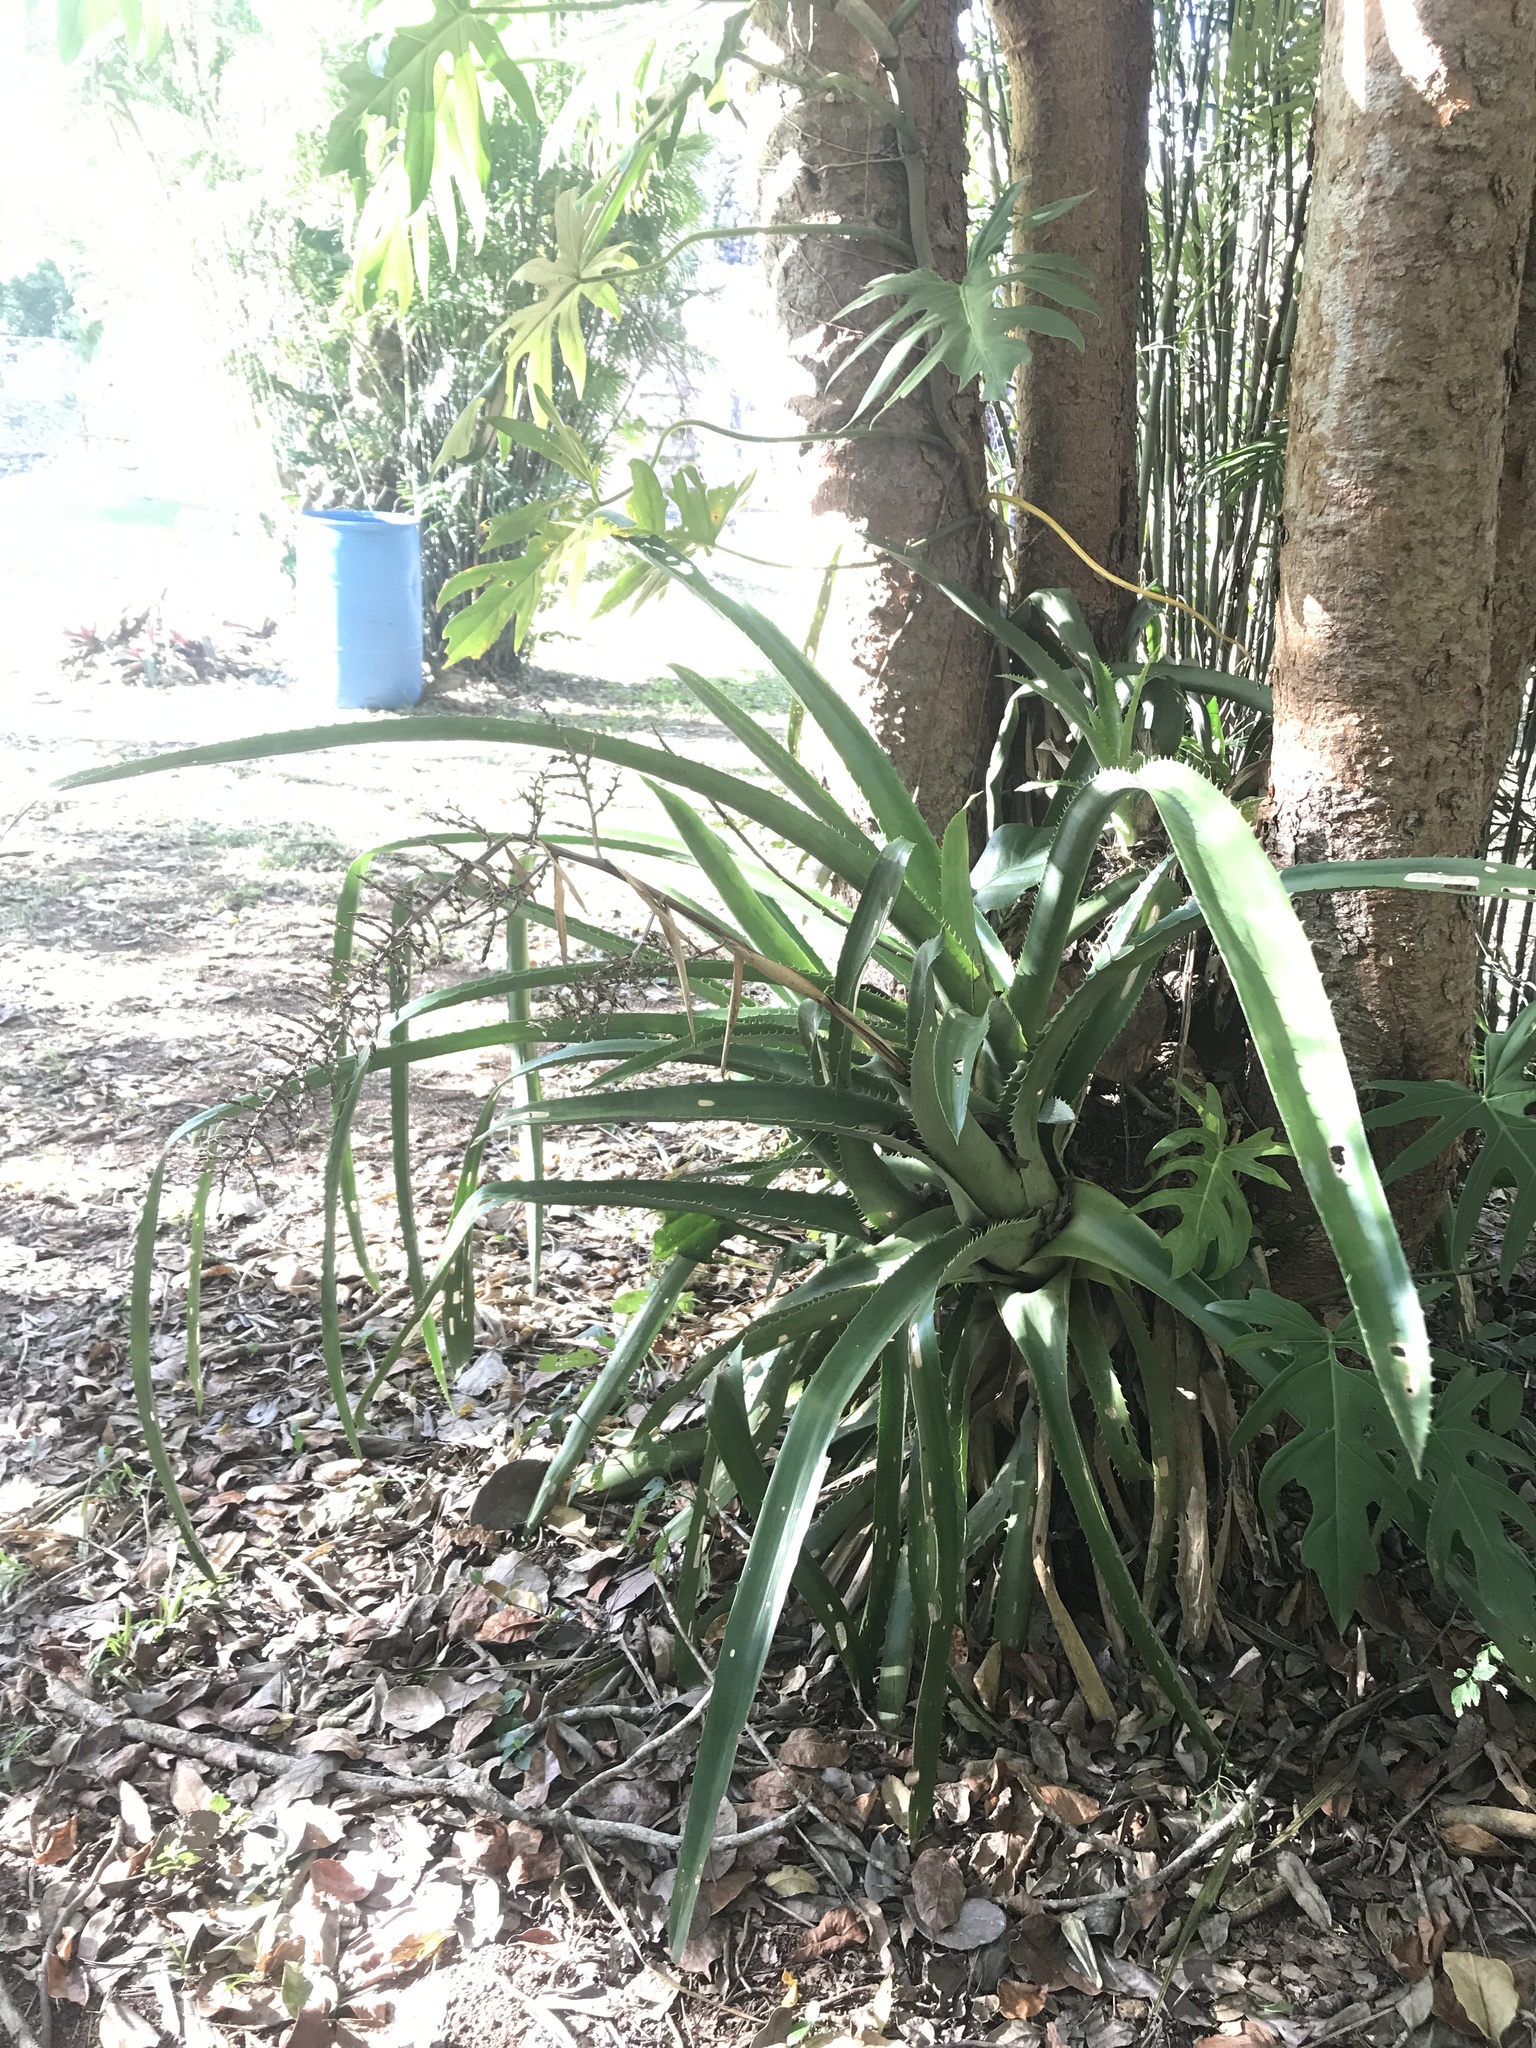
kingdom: Plantae
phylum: Tracheophyta
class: Liliopsida
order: Poales
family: Bromeliaceae
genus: Aechmea
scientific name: Aechmea bracteata
